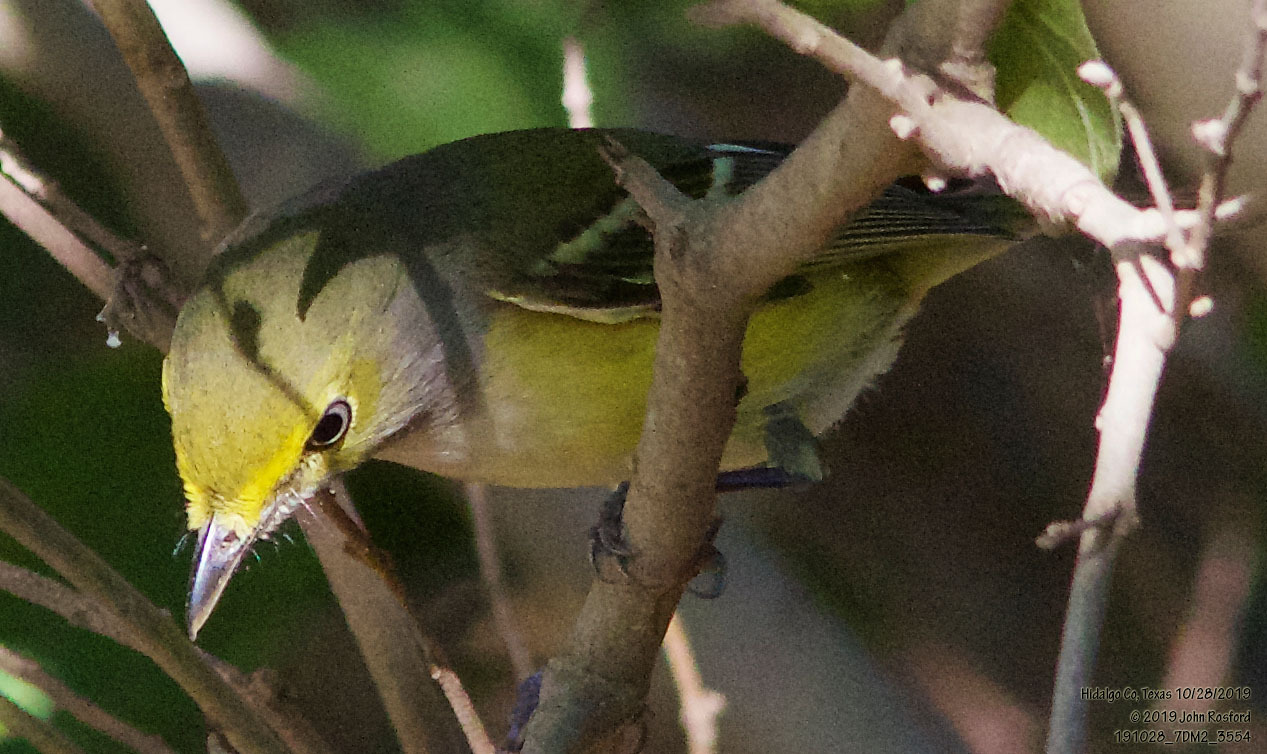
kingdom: Animalia
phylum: Chordata
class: Aves
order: Passeriformes
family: Vireonidae
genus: Vireo
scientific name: Vireo griseus
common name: White-eyed vireo
